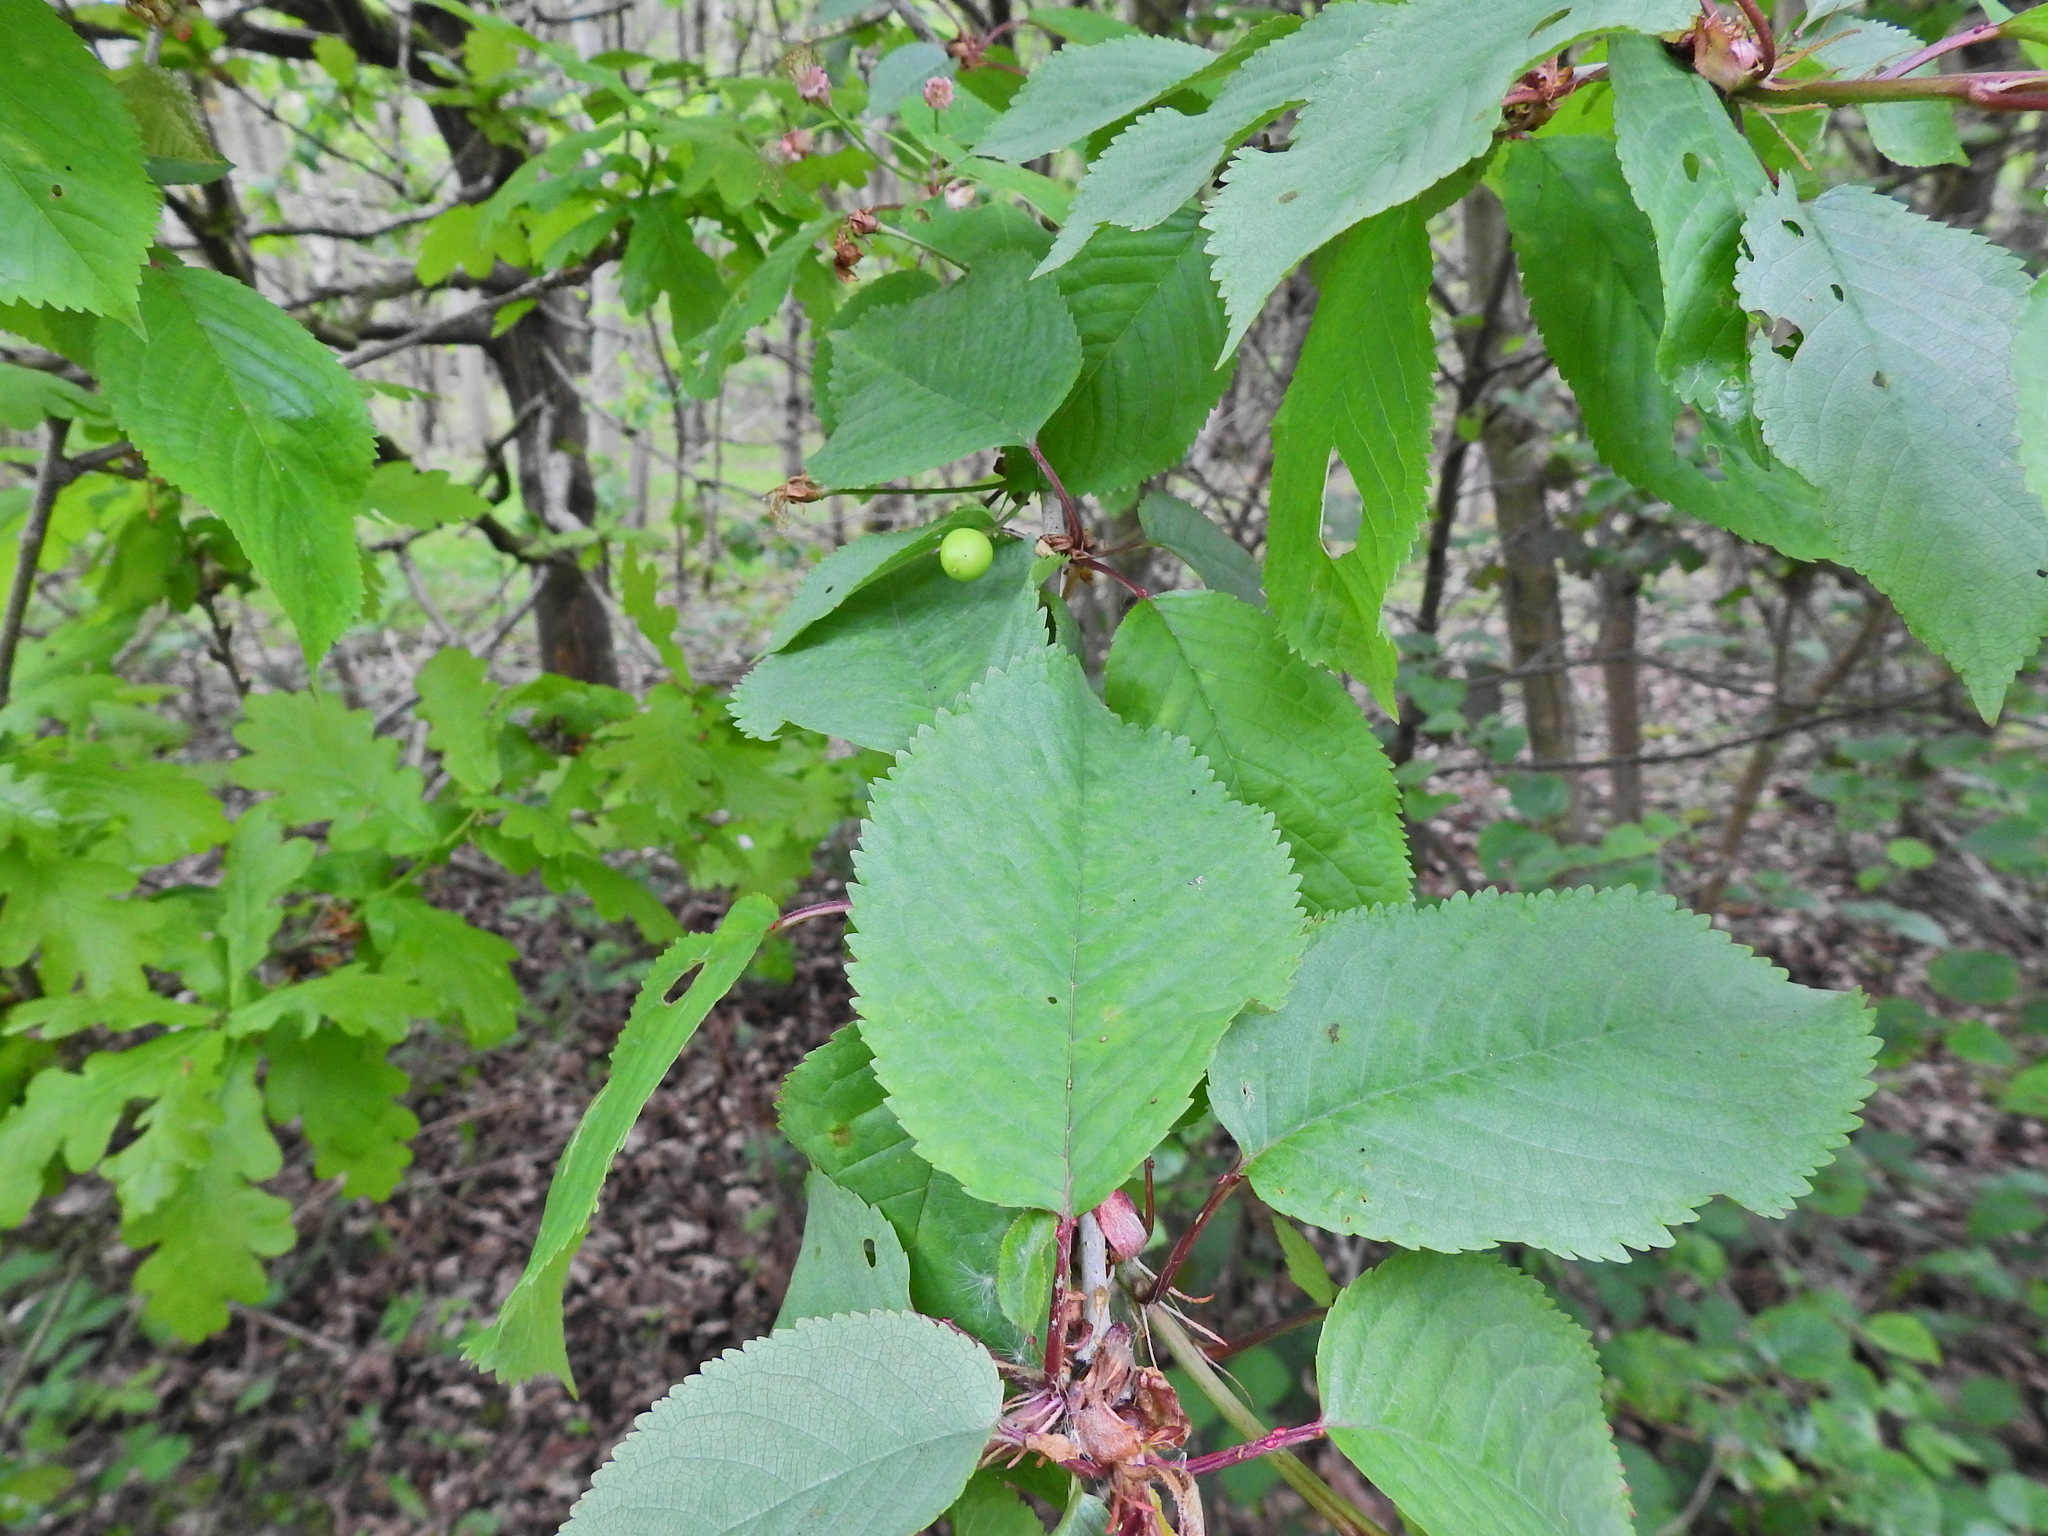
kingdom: Plantae
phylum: Tracheophyta
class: Magnoliopsida
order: Rosales
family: Rosaceae
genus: Prunus
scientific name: Prunus avium
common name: Sweet cherry
